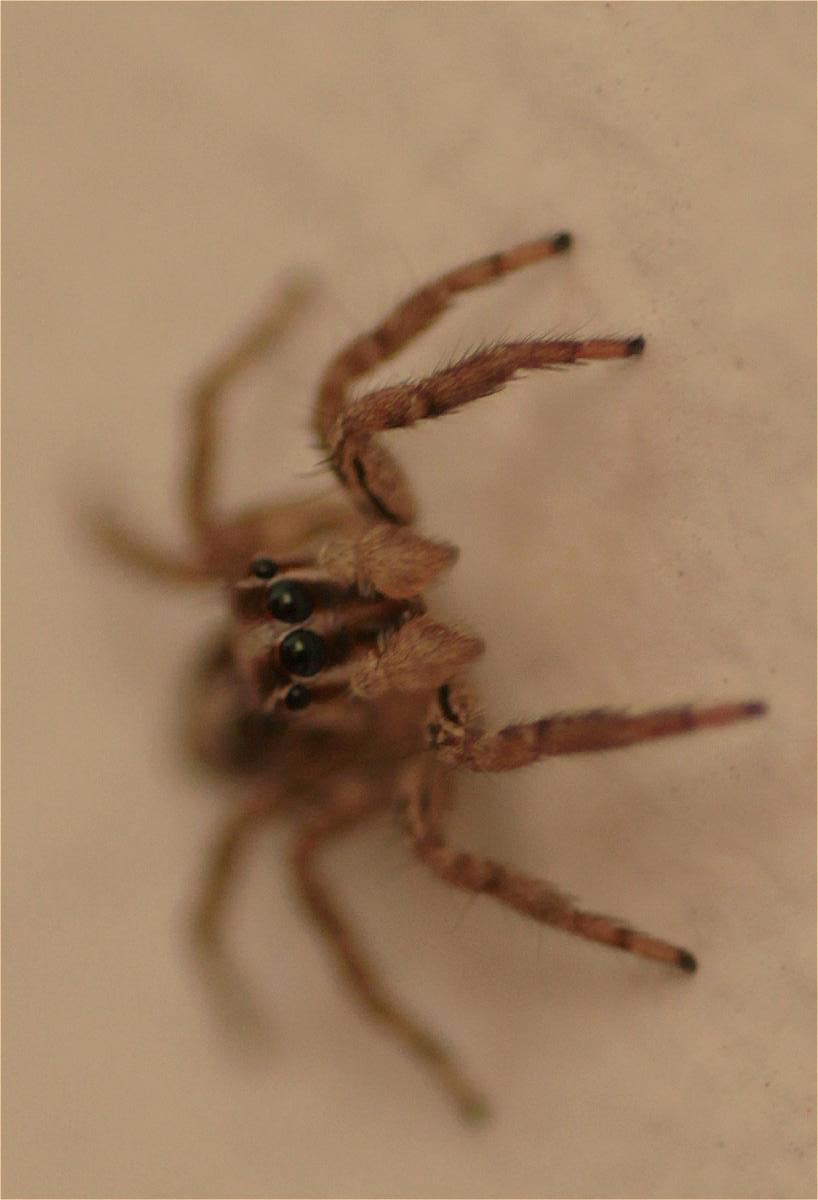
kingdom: Animalia
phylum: Arthropoda
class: Arachnida
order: Araneae
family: Salticidae
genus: Plexippus
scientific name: Plexippus paykulli
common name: Pantropical jumper
